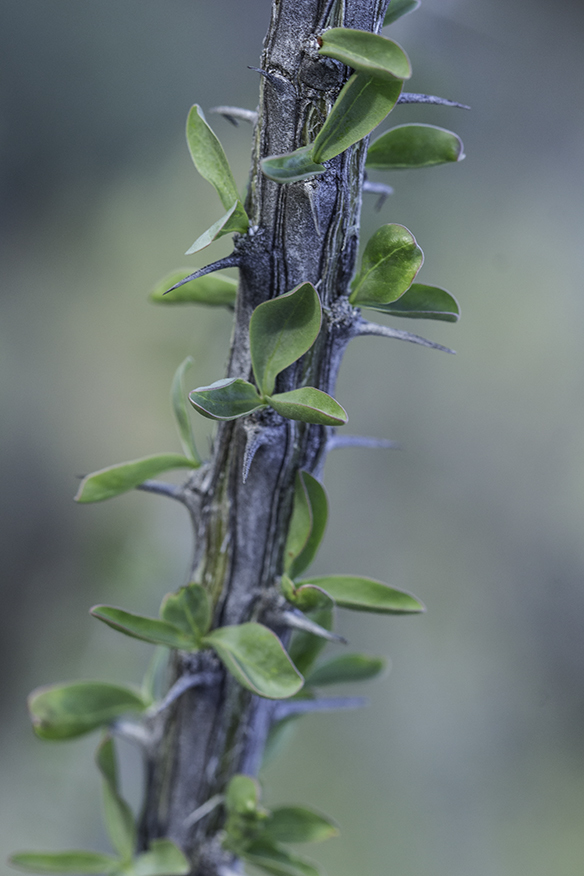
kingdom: Plantae
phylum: Tracheophyta
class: Magnoliopsida
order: Ericales
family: Fouquieriaceae
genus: Fouquieria
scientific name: Fouquieria splendens
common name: Vine-cactus
